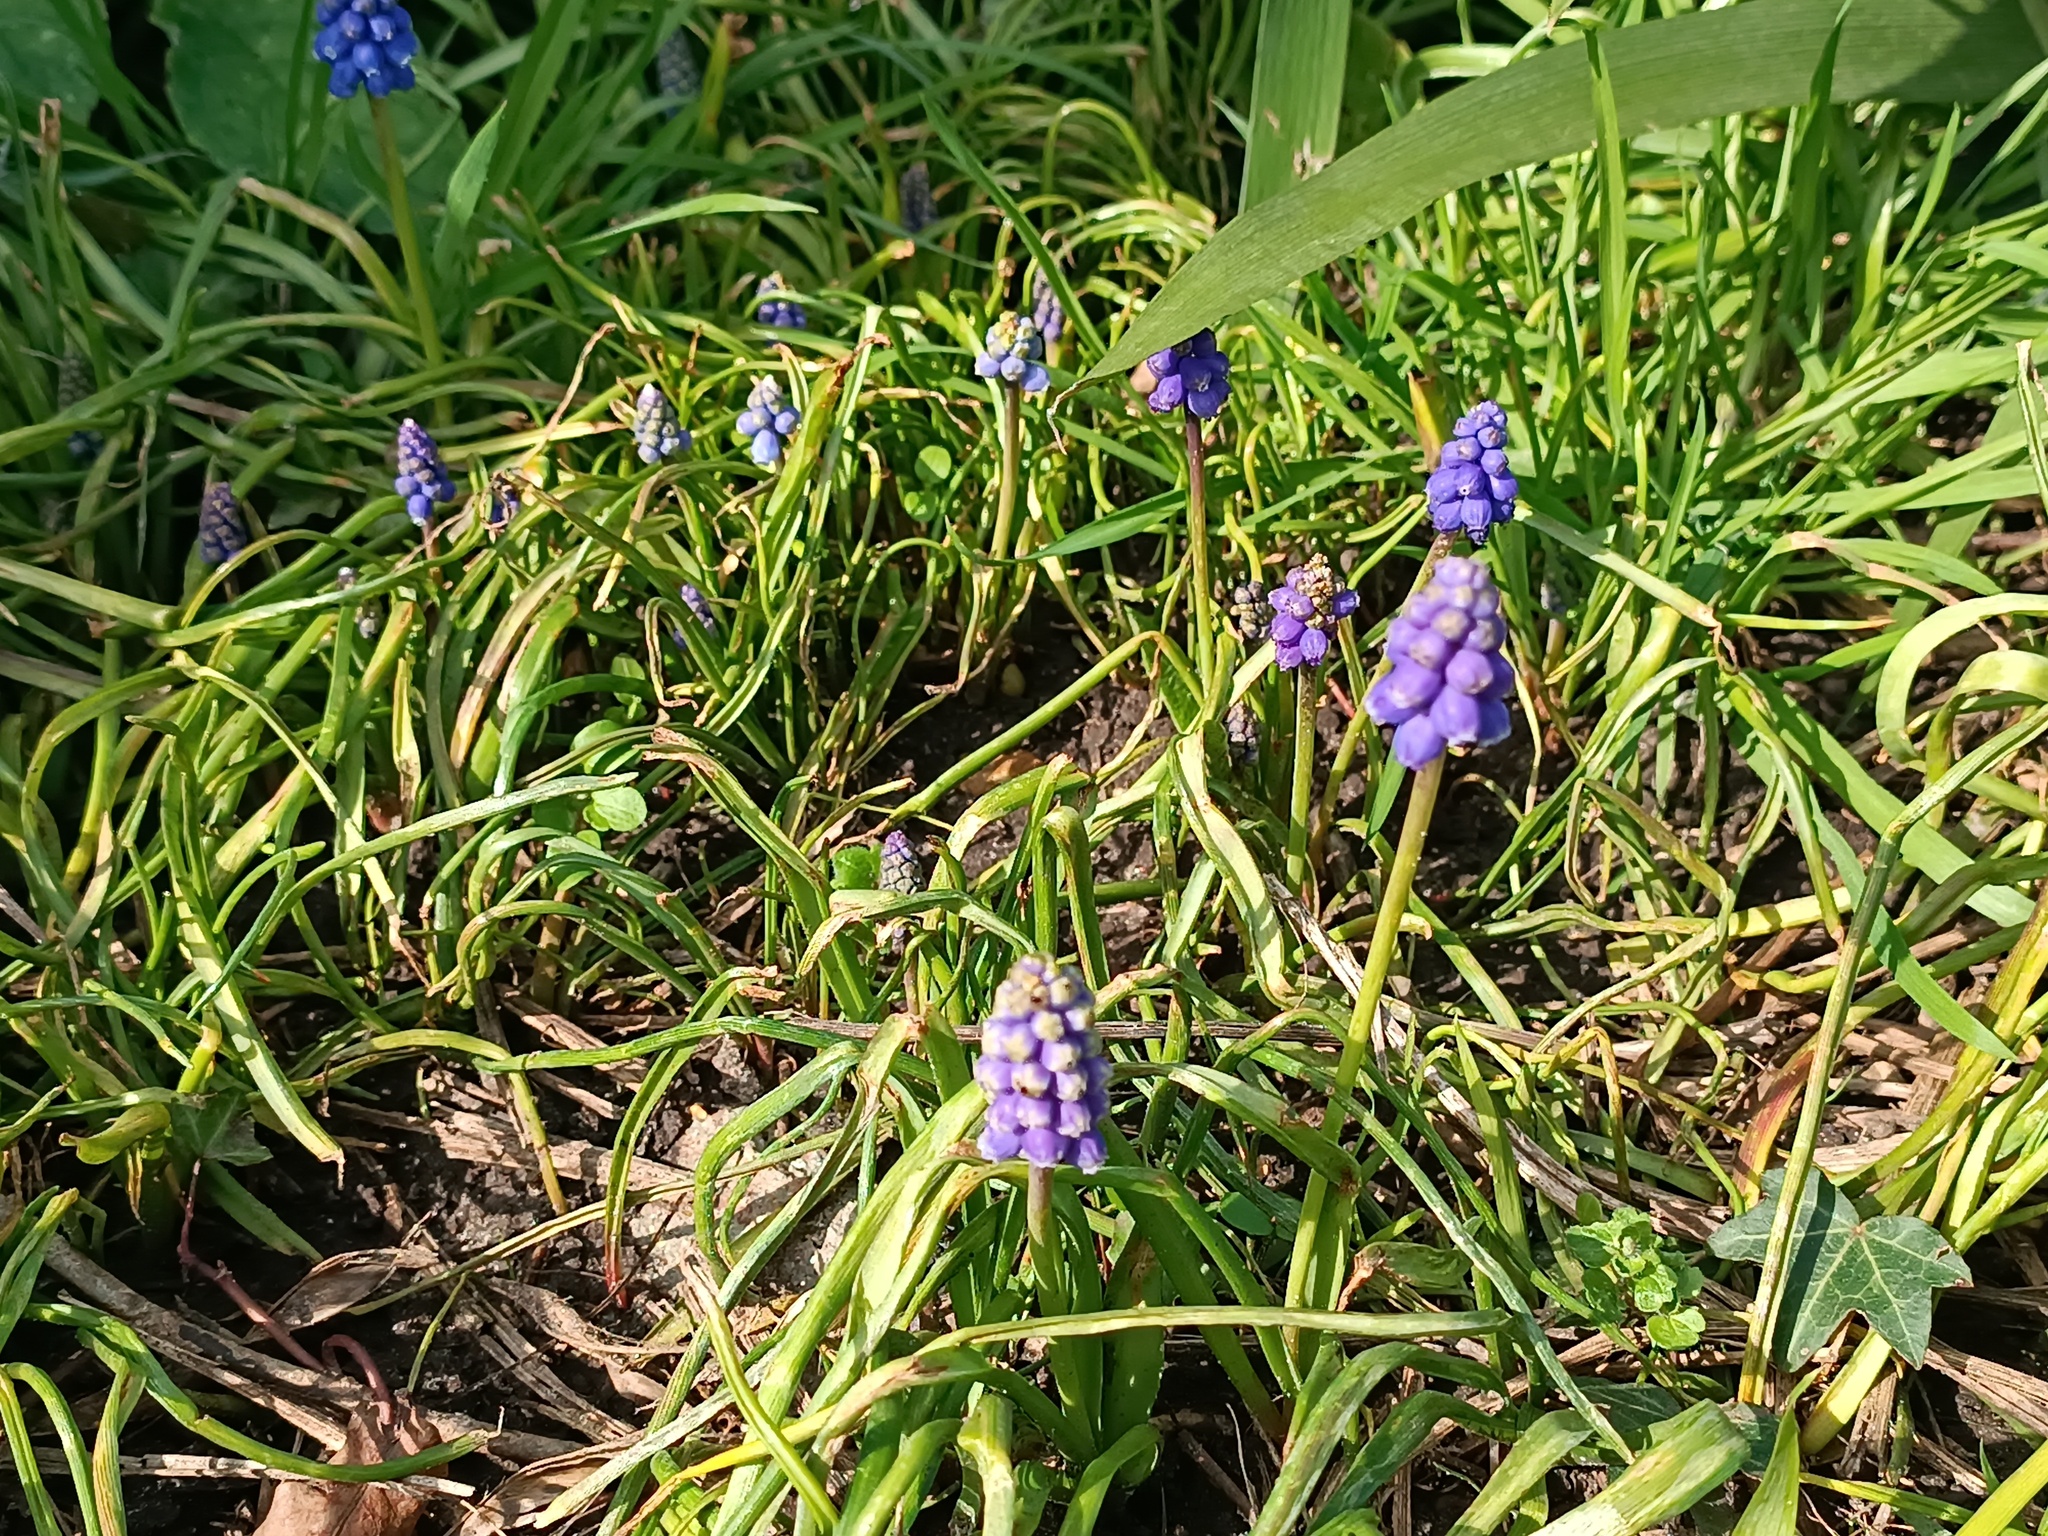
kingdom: Plantae
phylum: Tracheophyta
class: Liliopsida
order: Asparagales
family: Asparagaceae
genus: Muscari
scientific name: Muscari armeniacum
